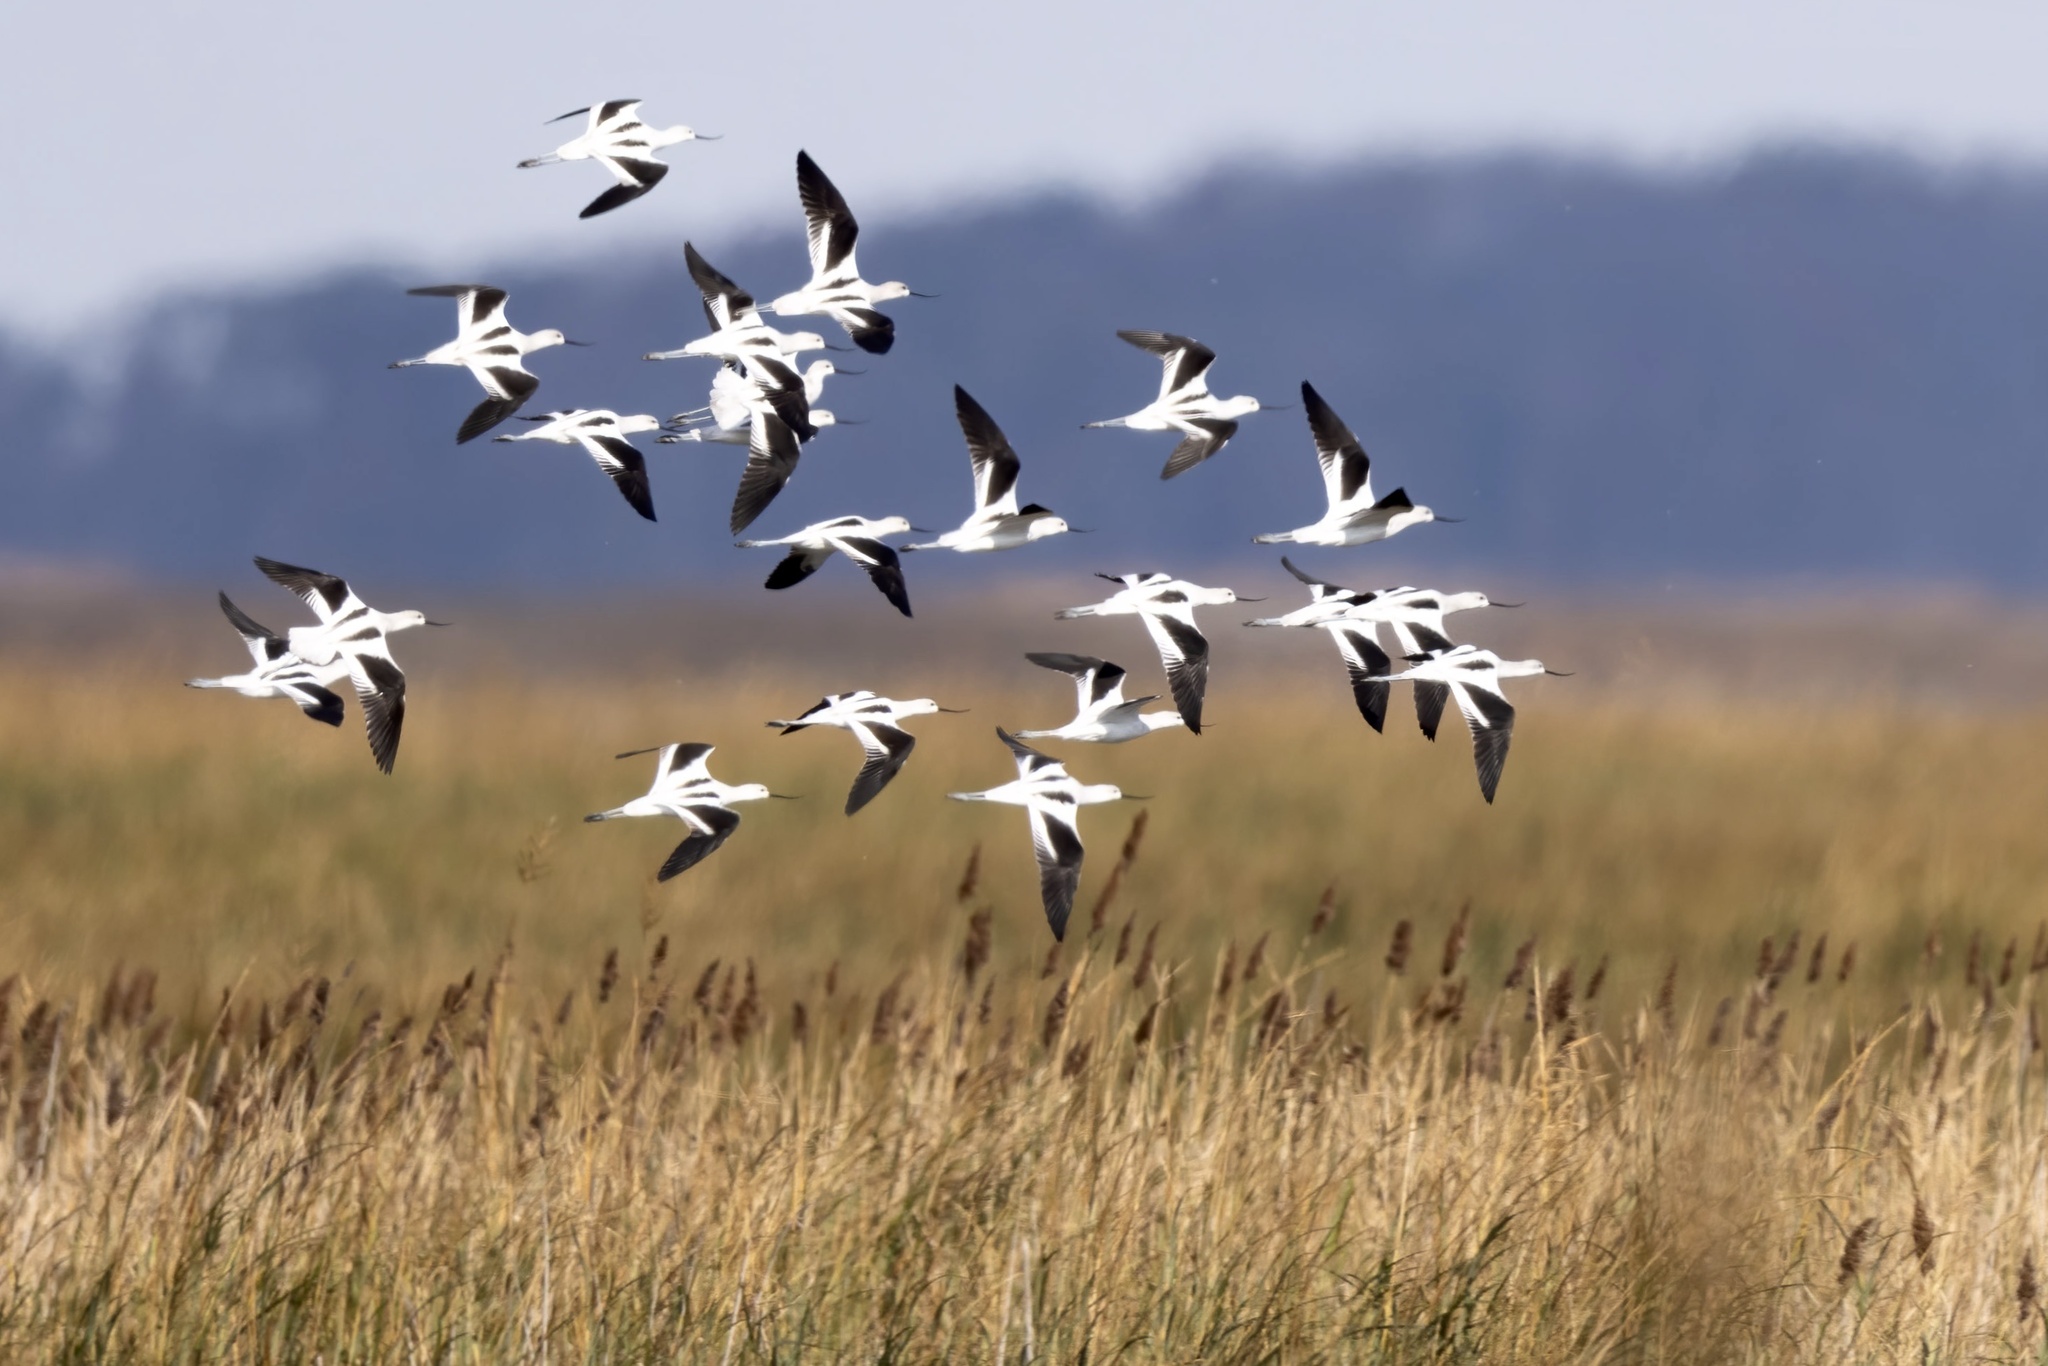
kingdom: Animalia
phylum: Chordata
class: Aves
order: Charadriiformes
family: Recurvirostridae
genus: Recurvirostra
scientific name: Recurvirostra americana
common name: American avocet
